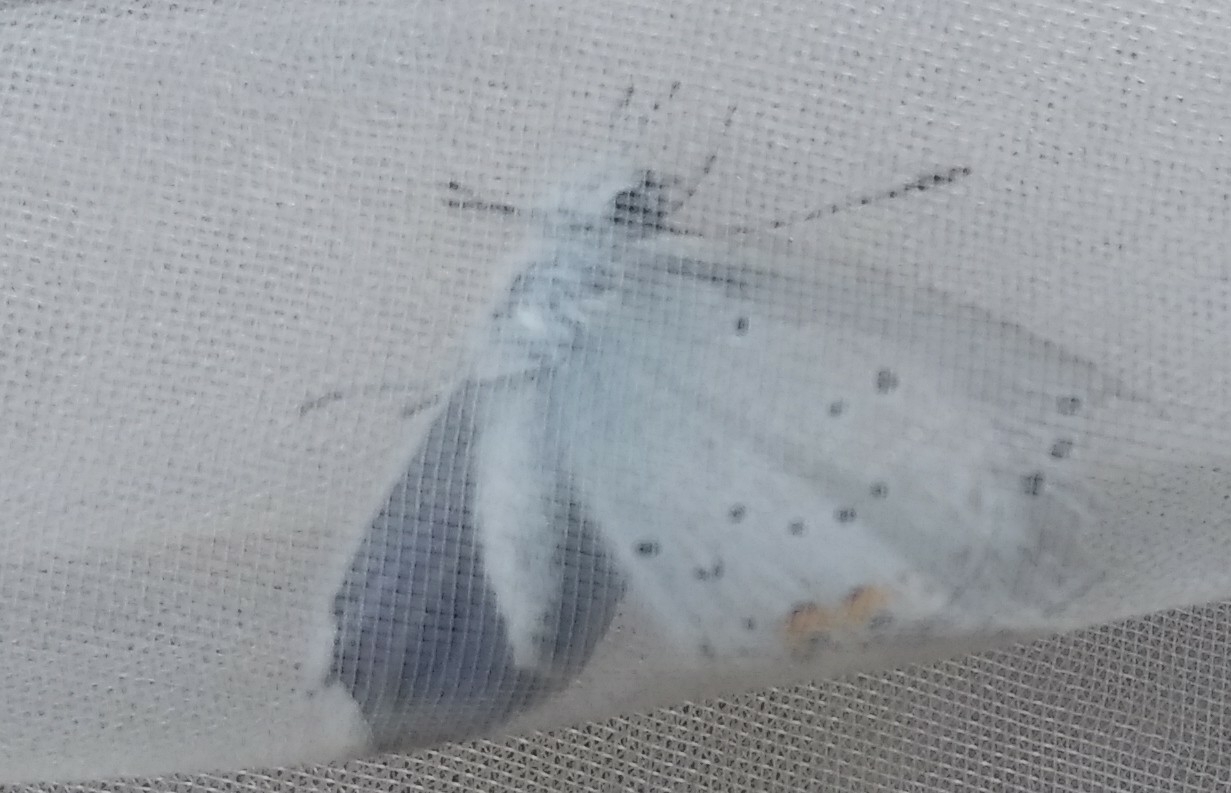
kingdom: Animalia
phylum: Arthropoda
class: Insecta
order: Lepidoptera
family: Lycaenidae
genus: Elkalyce
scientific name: Elkalyce argiades
